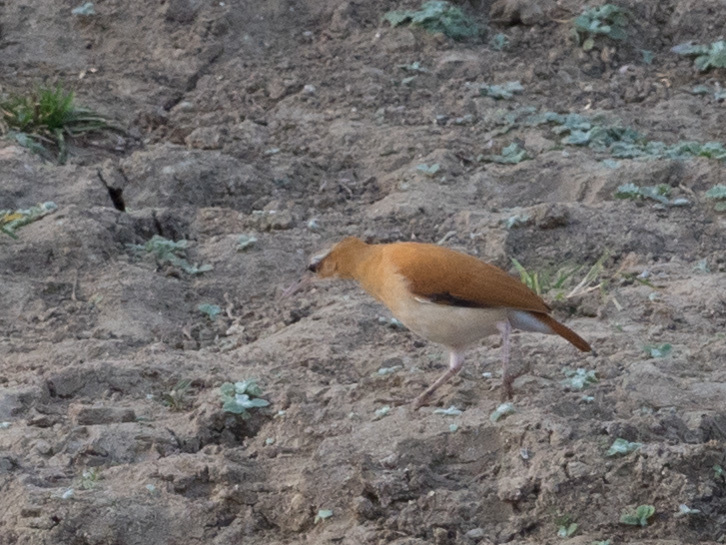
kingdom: Animalia
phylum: Chordata
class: Aves
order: Passeriformes
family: Furnariidae
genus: Furnarius
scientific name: Furnarius longirostris
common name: Caribbean hornero
